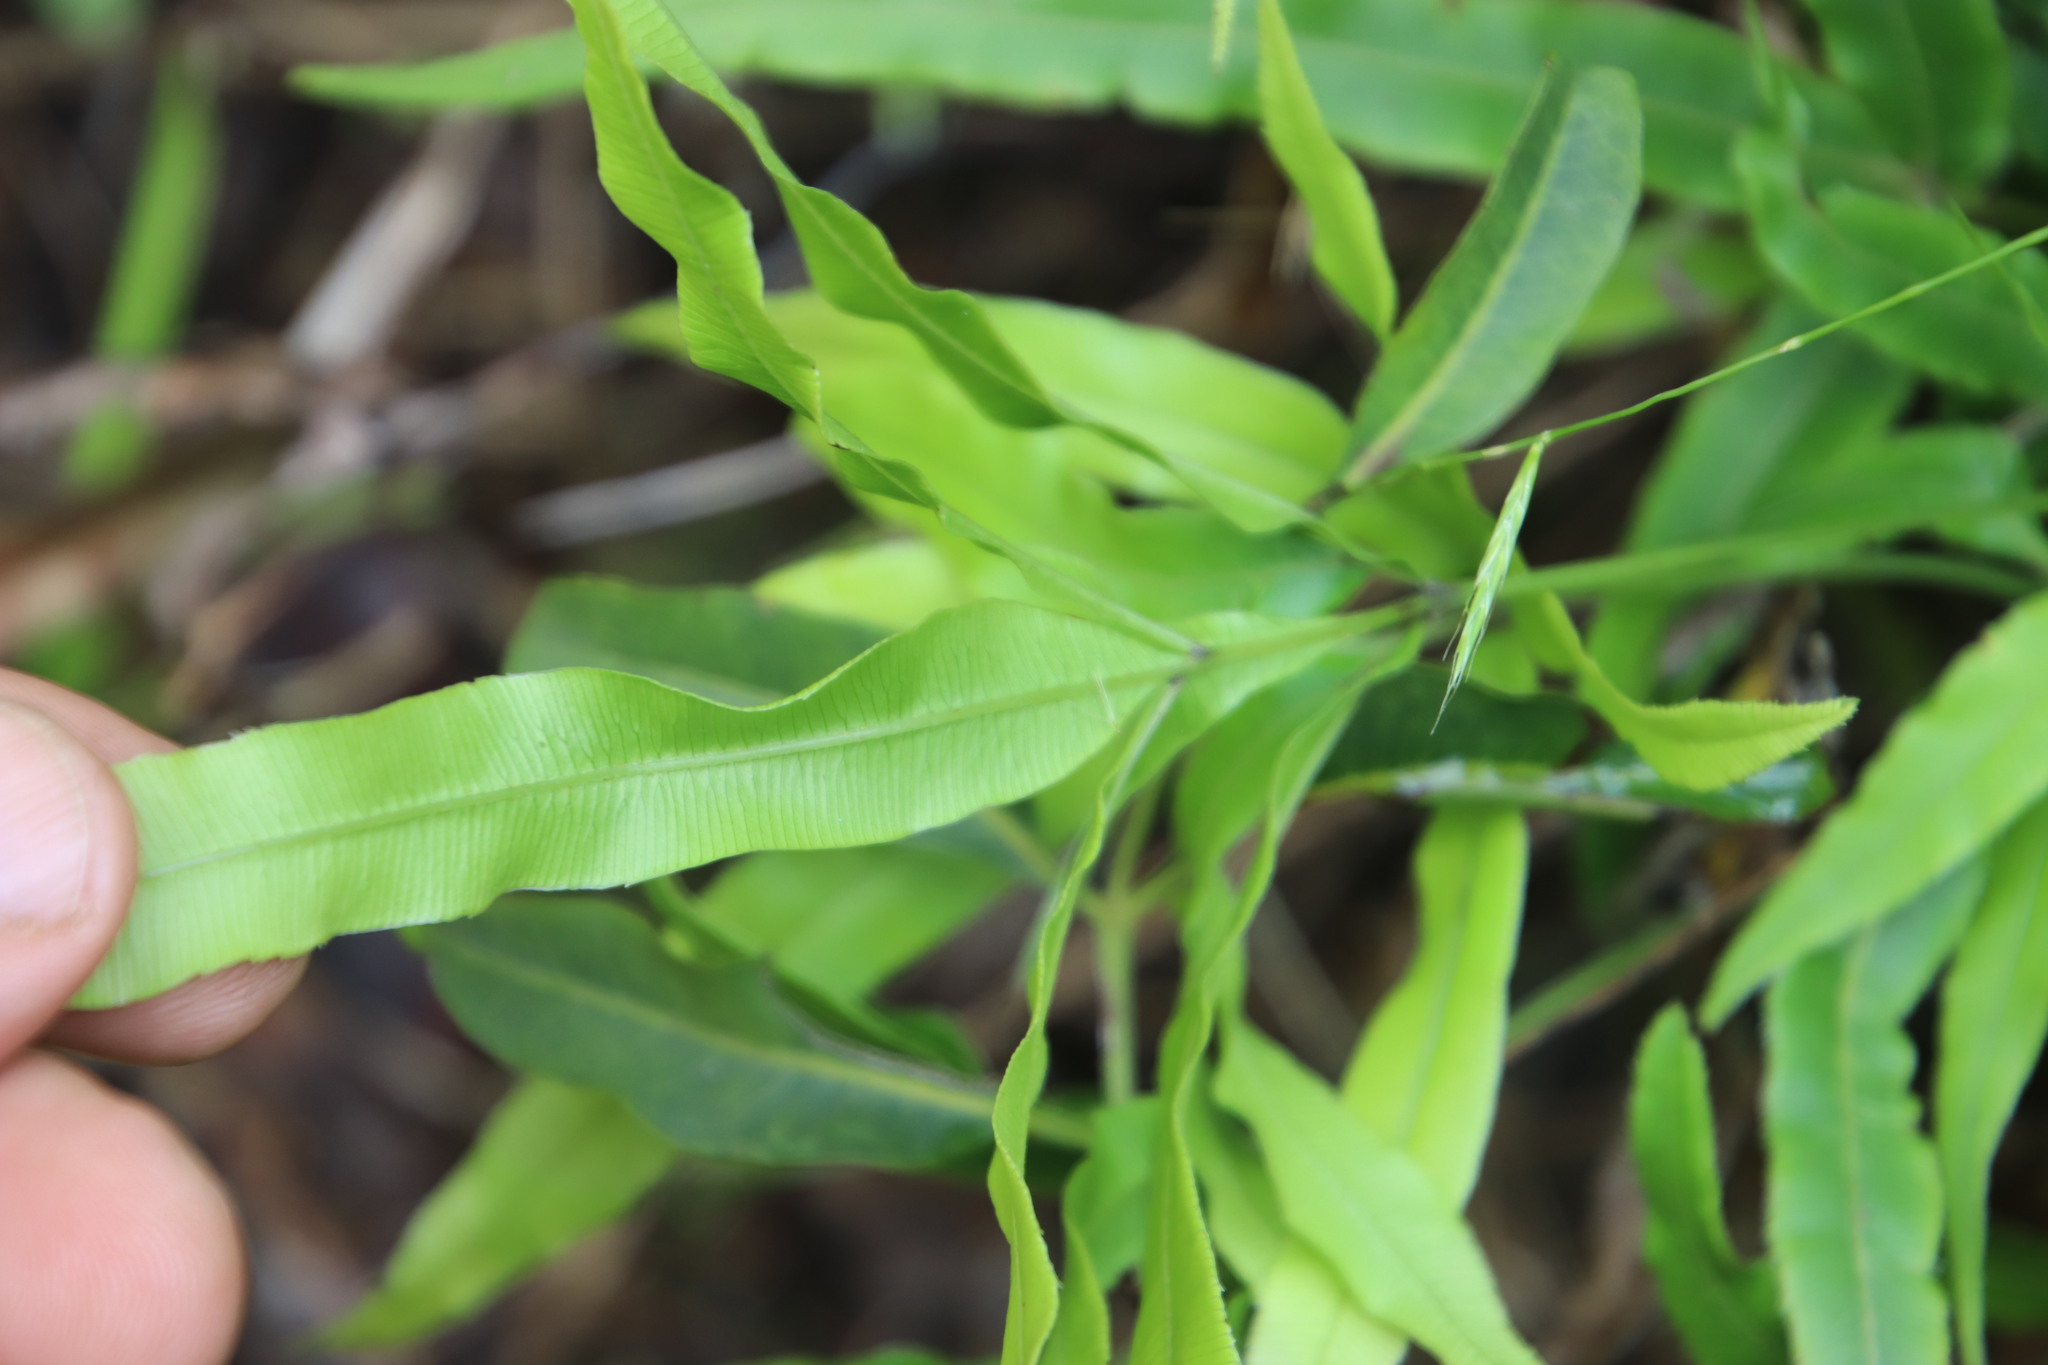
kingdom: Plantae
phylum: Tracheophyta
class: Polypodiopsida
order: Polypodiales
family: Pteridaceae
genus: Pteris
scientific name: Pteris cretica
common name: Ribbon fern
